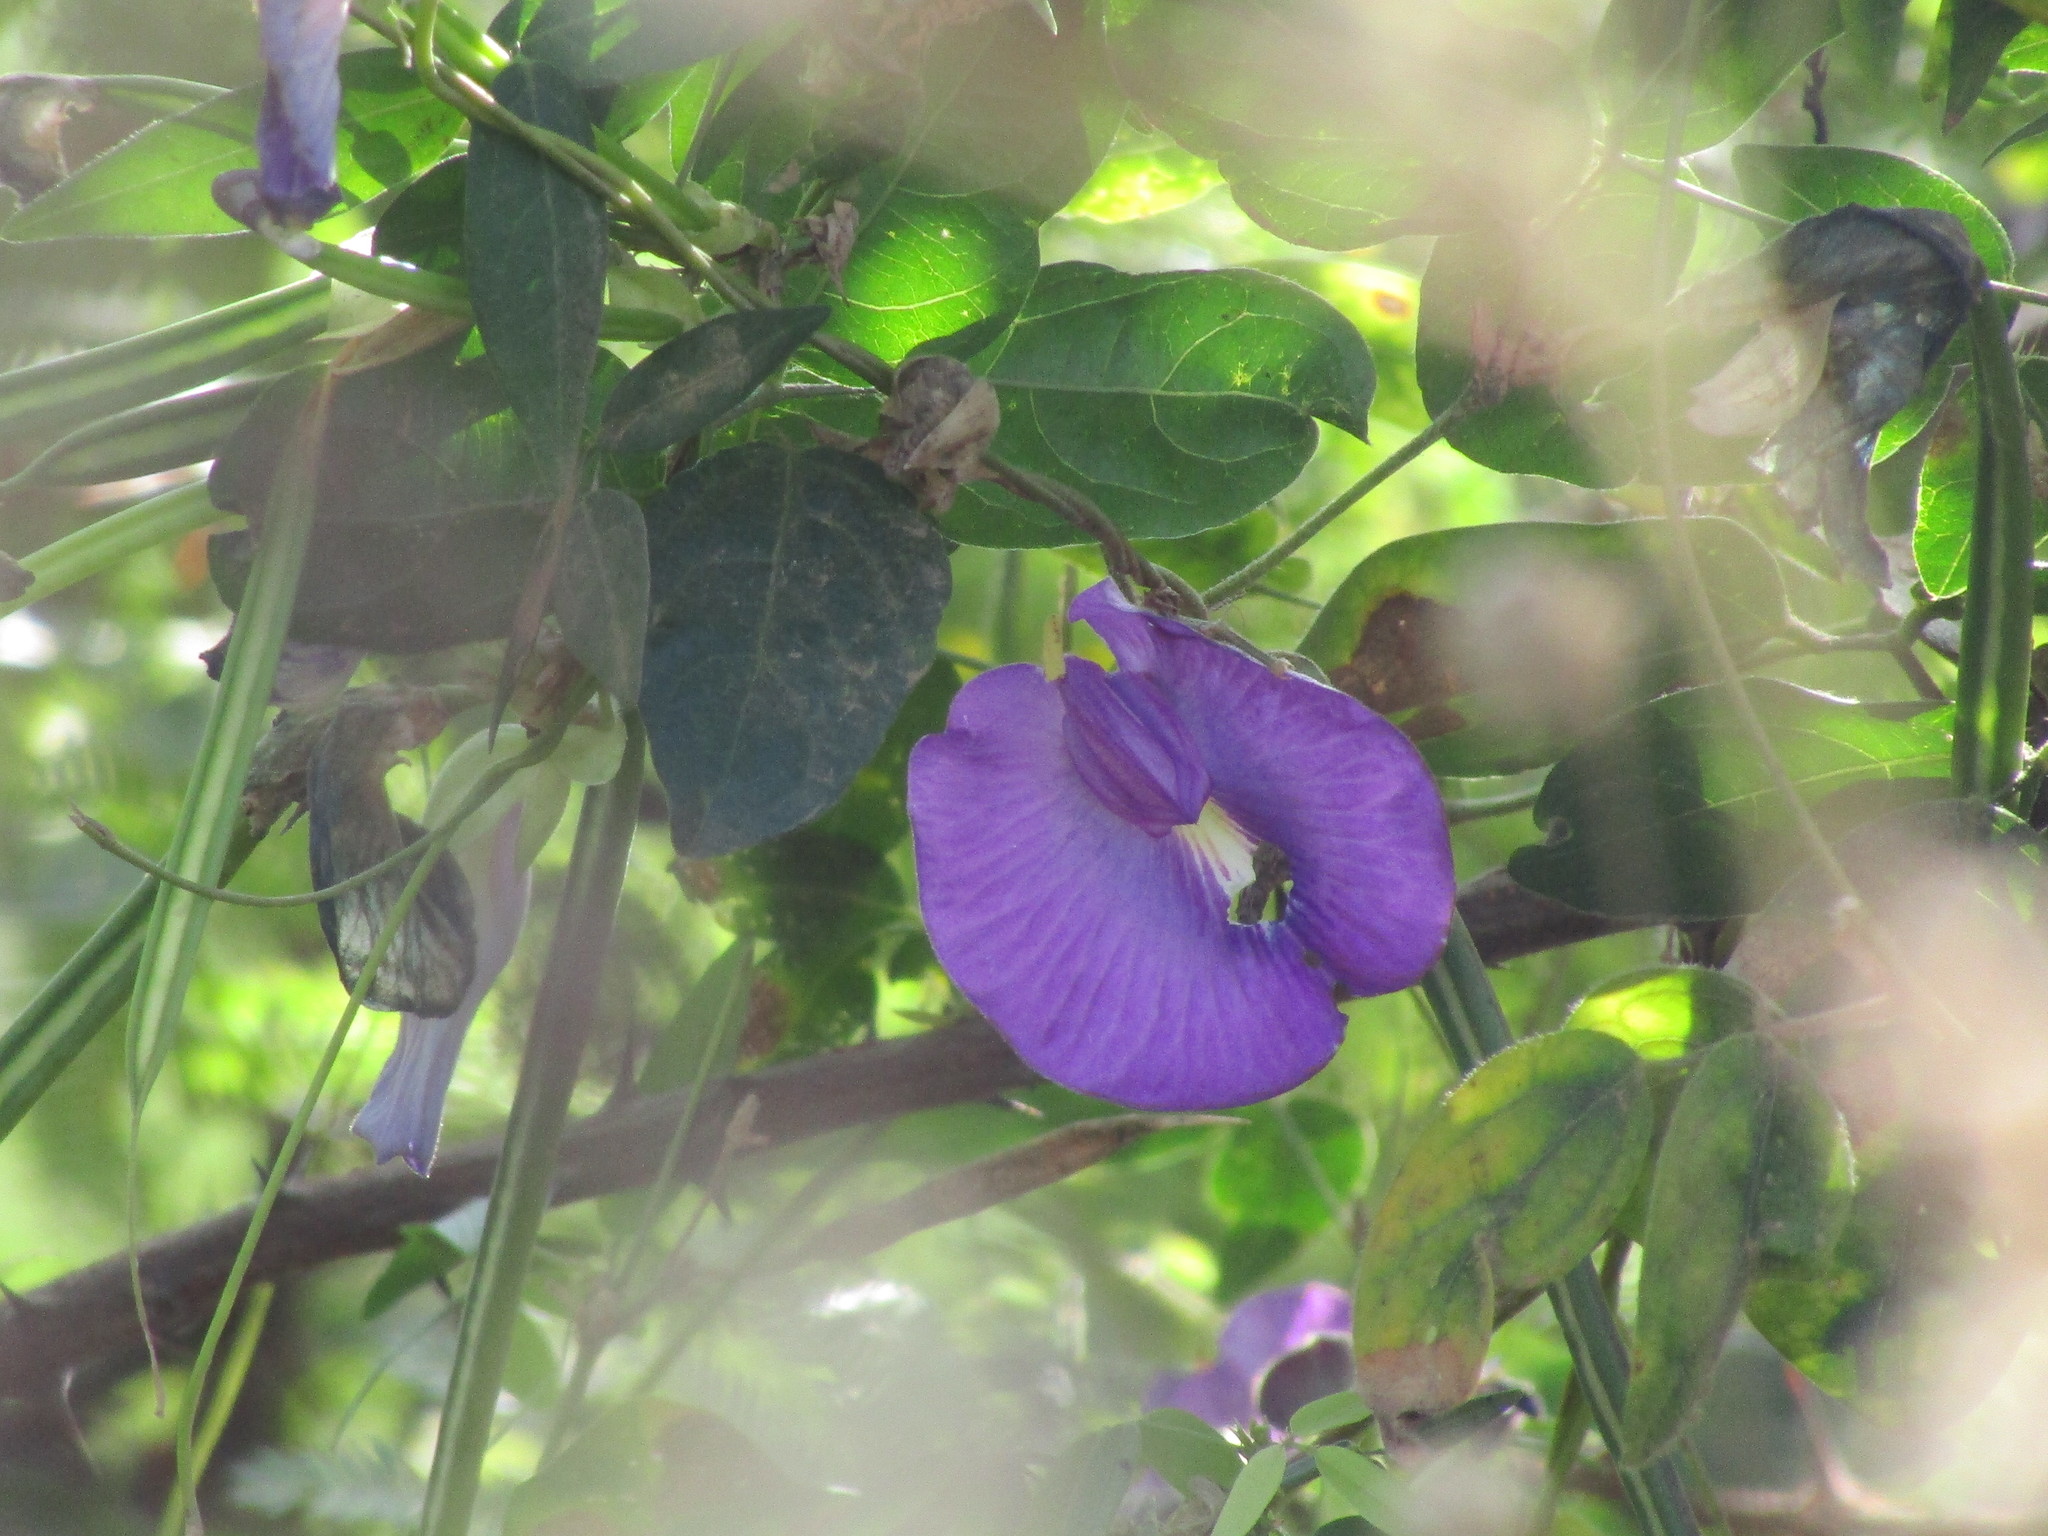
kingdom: Plantae
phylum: Tracheophyta
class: Magnoliopsida
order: Fabales
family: Fabaceae
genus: Centrosema
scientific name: Centrosema brasilianum
